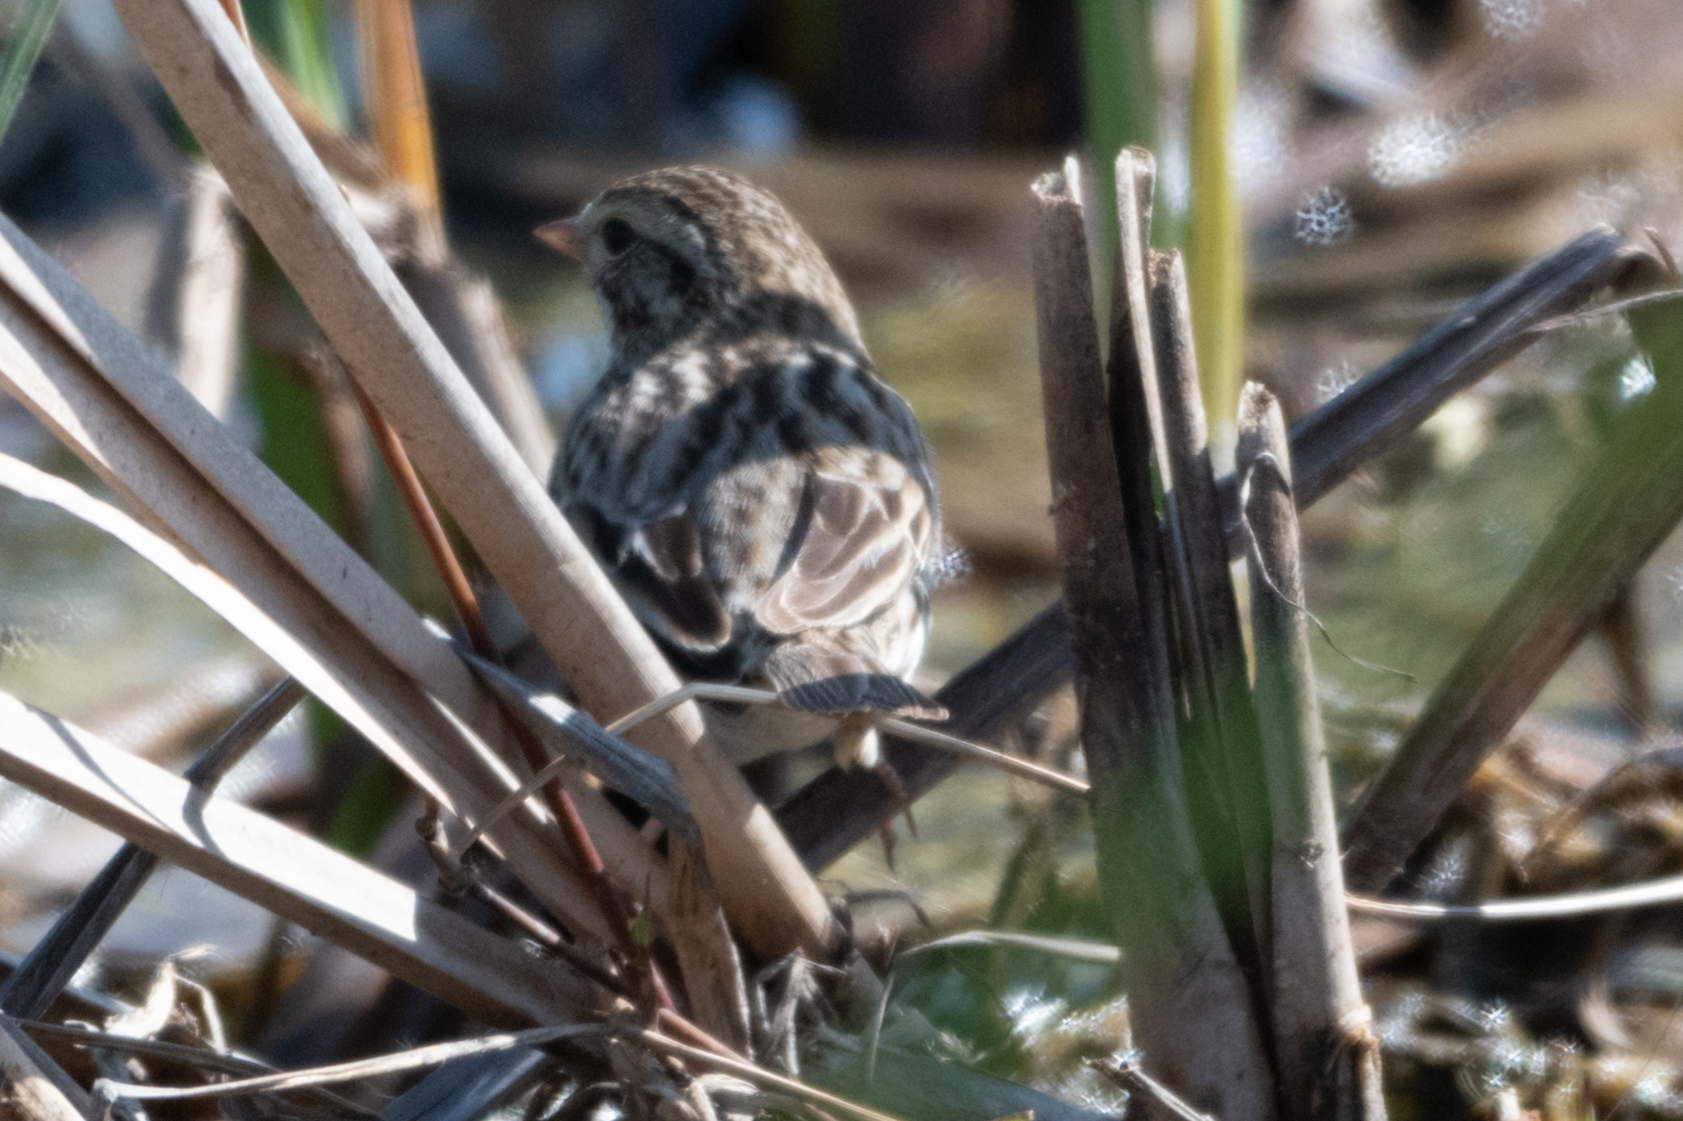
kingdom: Animalia
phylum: Chordata
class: Aves
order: Passeriformes
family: Passerellidae
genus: Passerculus
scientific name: Passerculus sandwichensis
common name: Savannah sparrow
